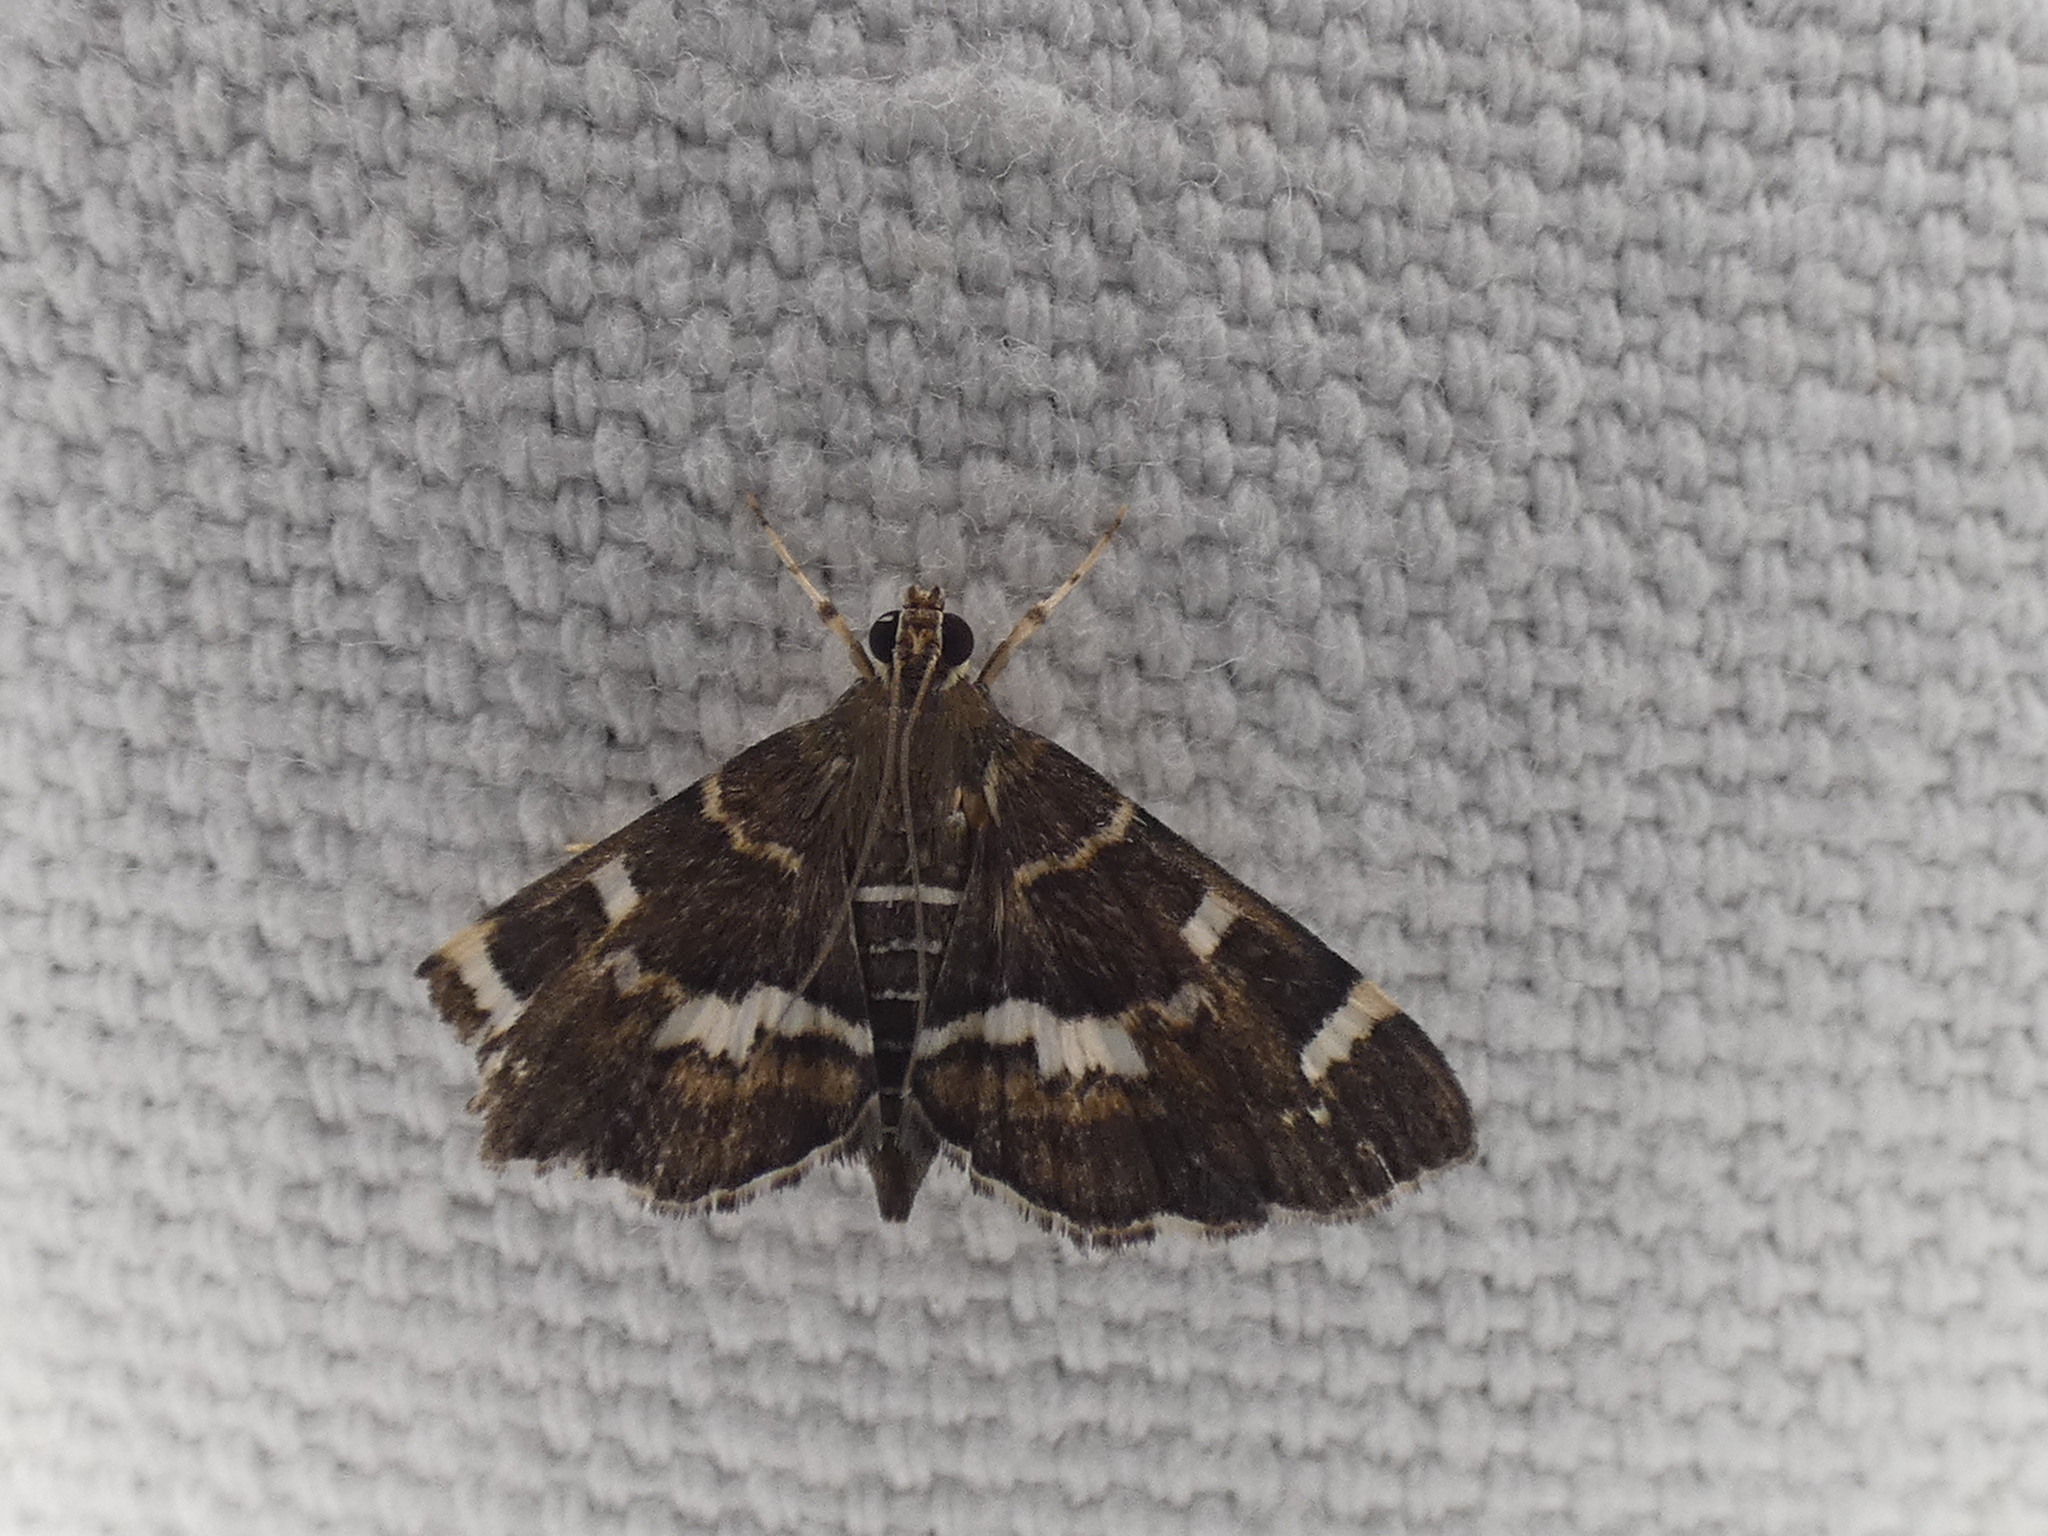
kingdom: Animalia
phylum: Arthropoda
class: Insecta
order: Lepidoptera
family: Crambidae
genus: Hymenia
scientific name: Hymenia perspectalis
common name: Spotted beet webworm
